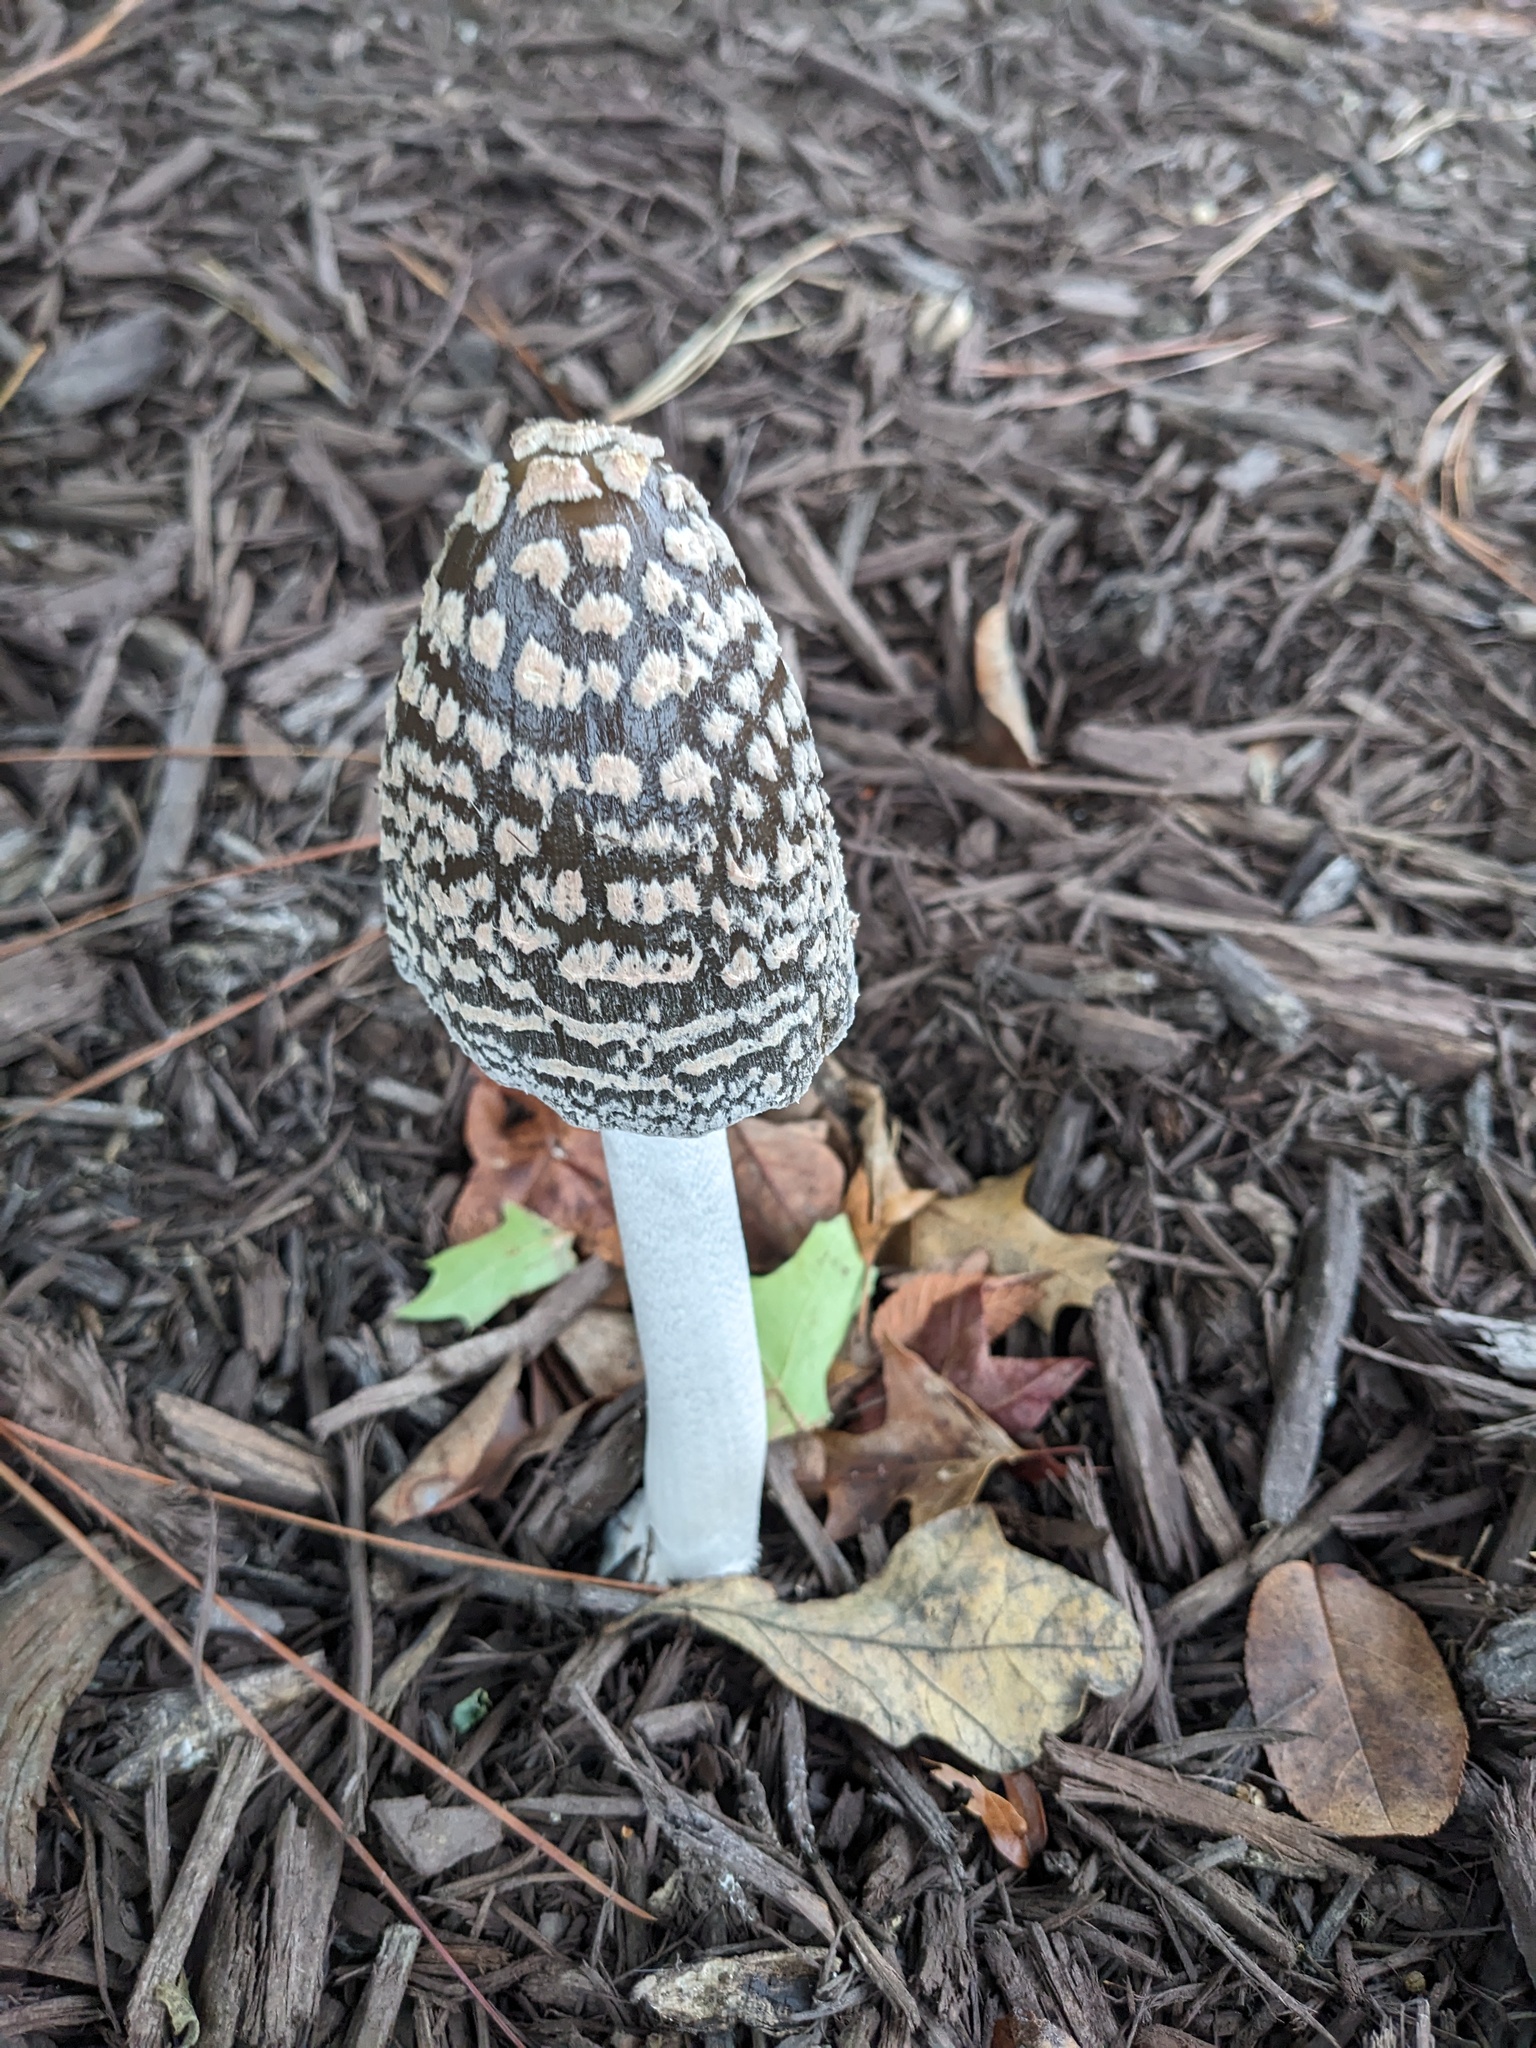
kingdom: Fungi
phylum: Basidiomycota
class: Agaricomycetes
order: Agaricales
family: Psathyrellaceae
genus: Coprinopsis
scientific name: Coprinopsis picacea
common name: Magpie inkcap
